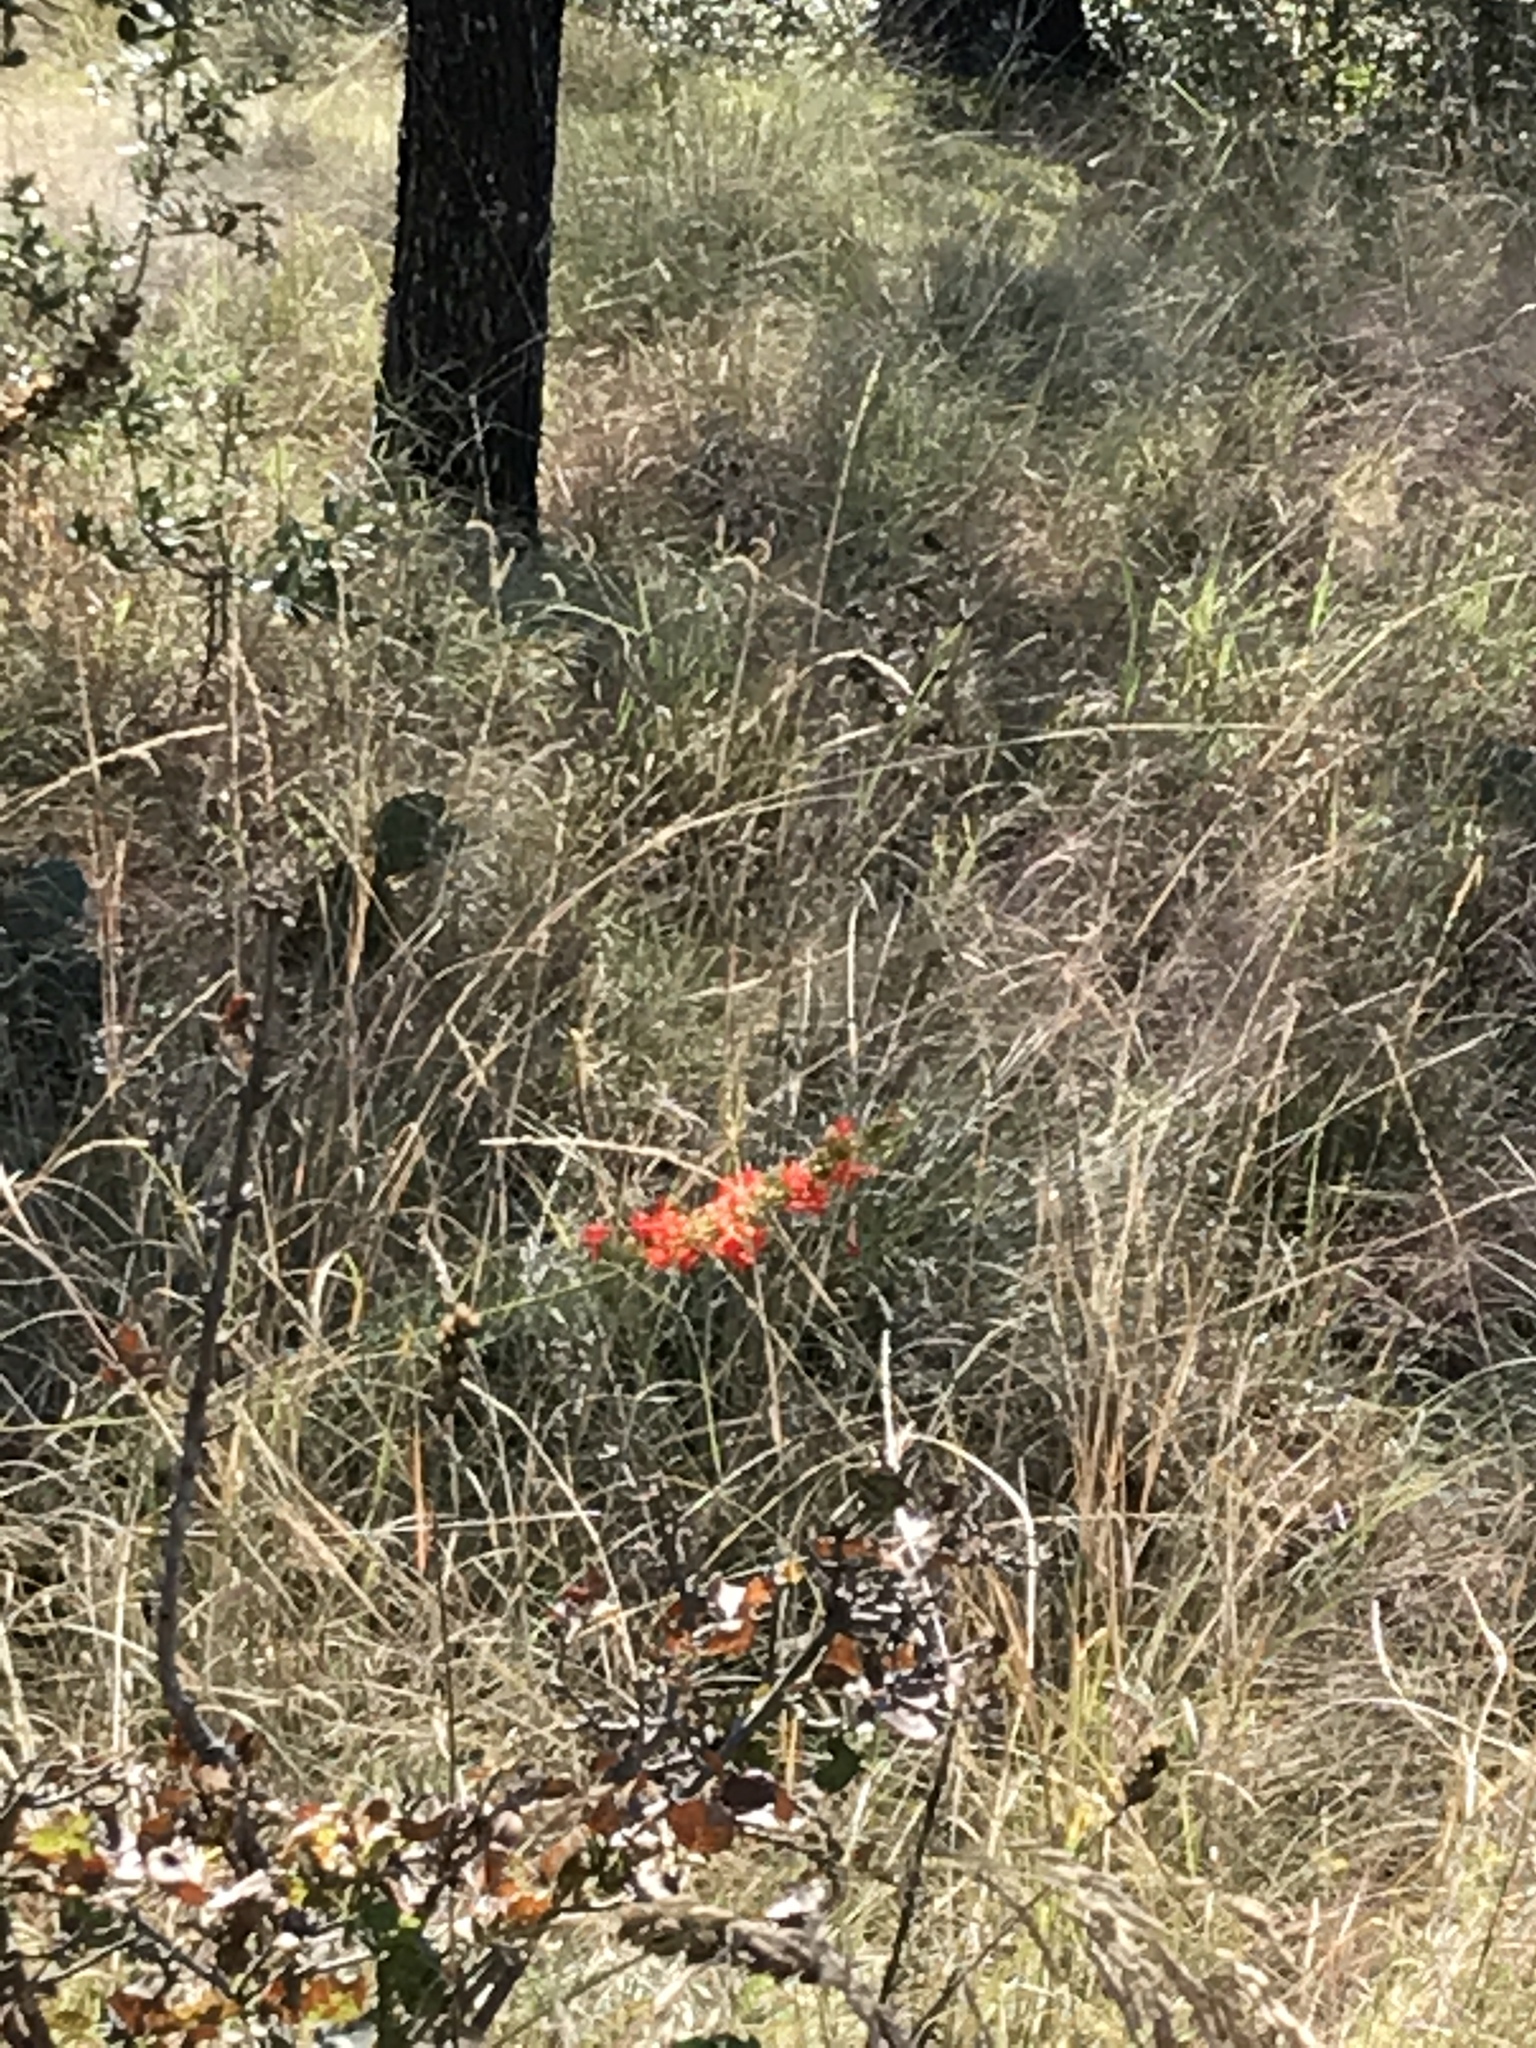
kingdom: Plantae
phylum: Tracheophyta
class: Magnoliopsida
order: Ericales
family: Polemoniaceae
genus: Ipomopsis
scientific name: Ipomopsis rubra
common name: Skyrocket
